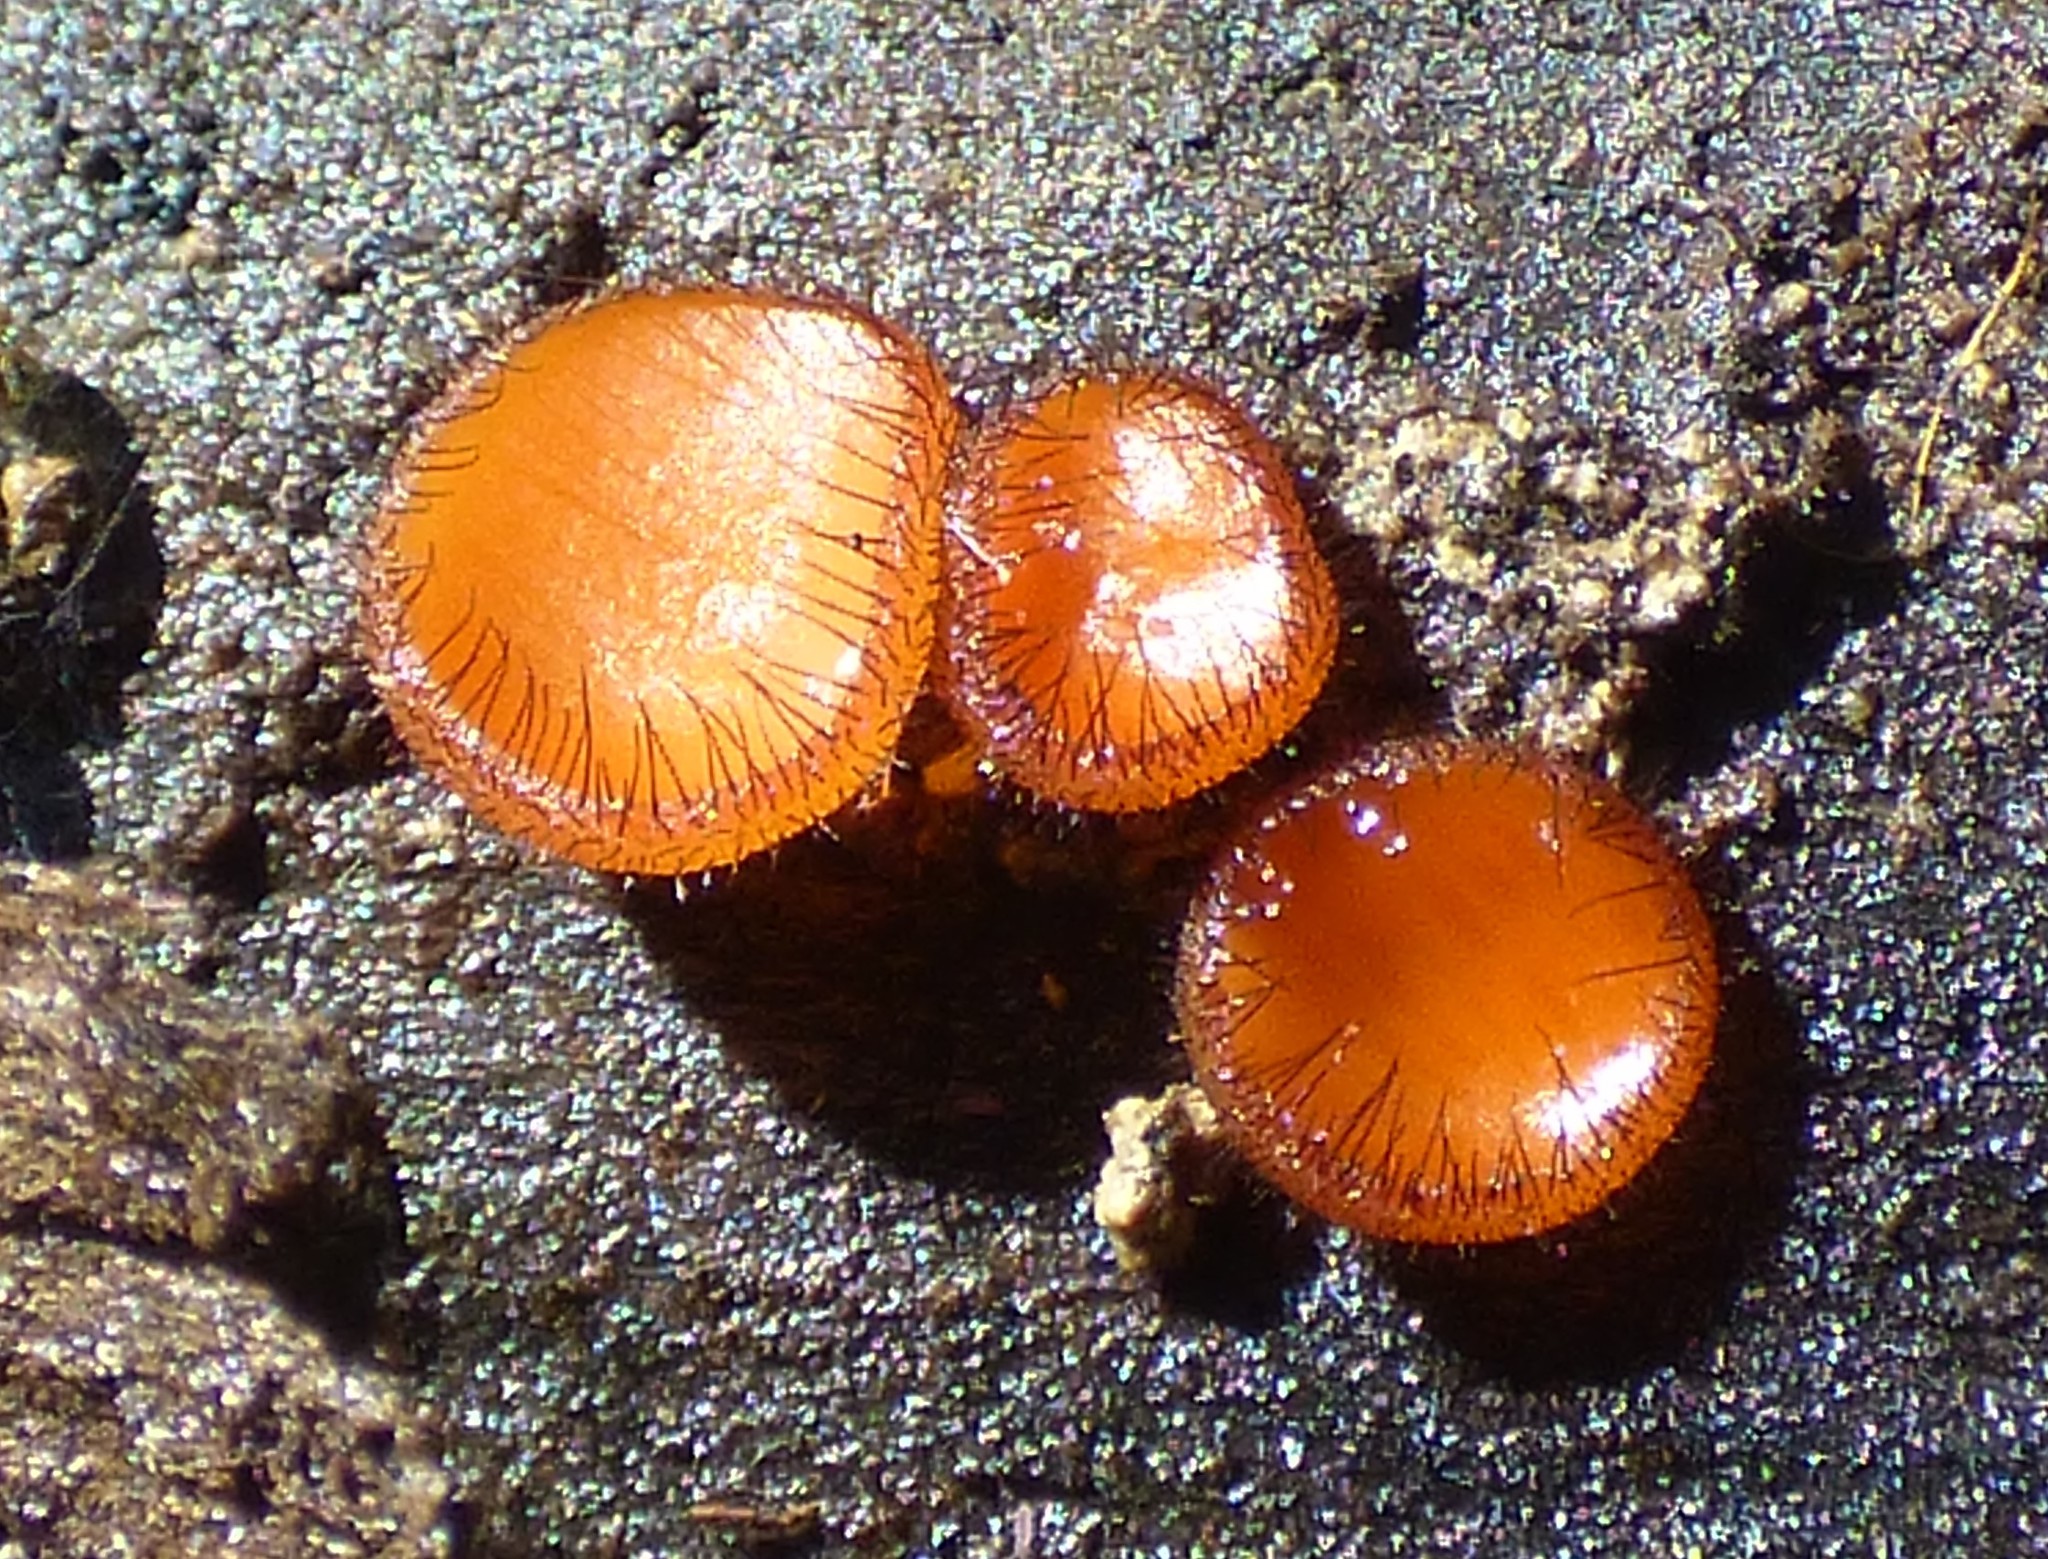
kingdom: Fungi
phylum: Ascomycota
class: Pezizomycetes
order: Pezizales
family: Pyronemataceae
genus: Scutellinia
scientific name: Scutellinia
